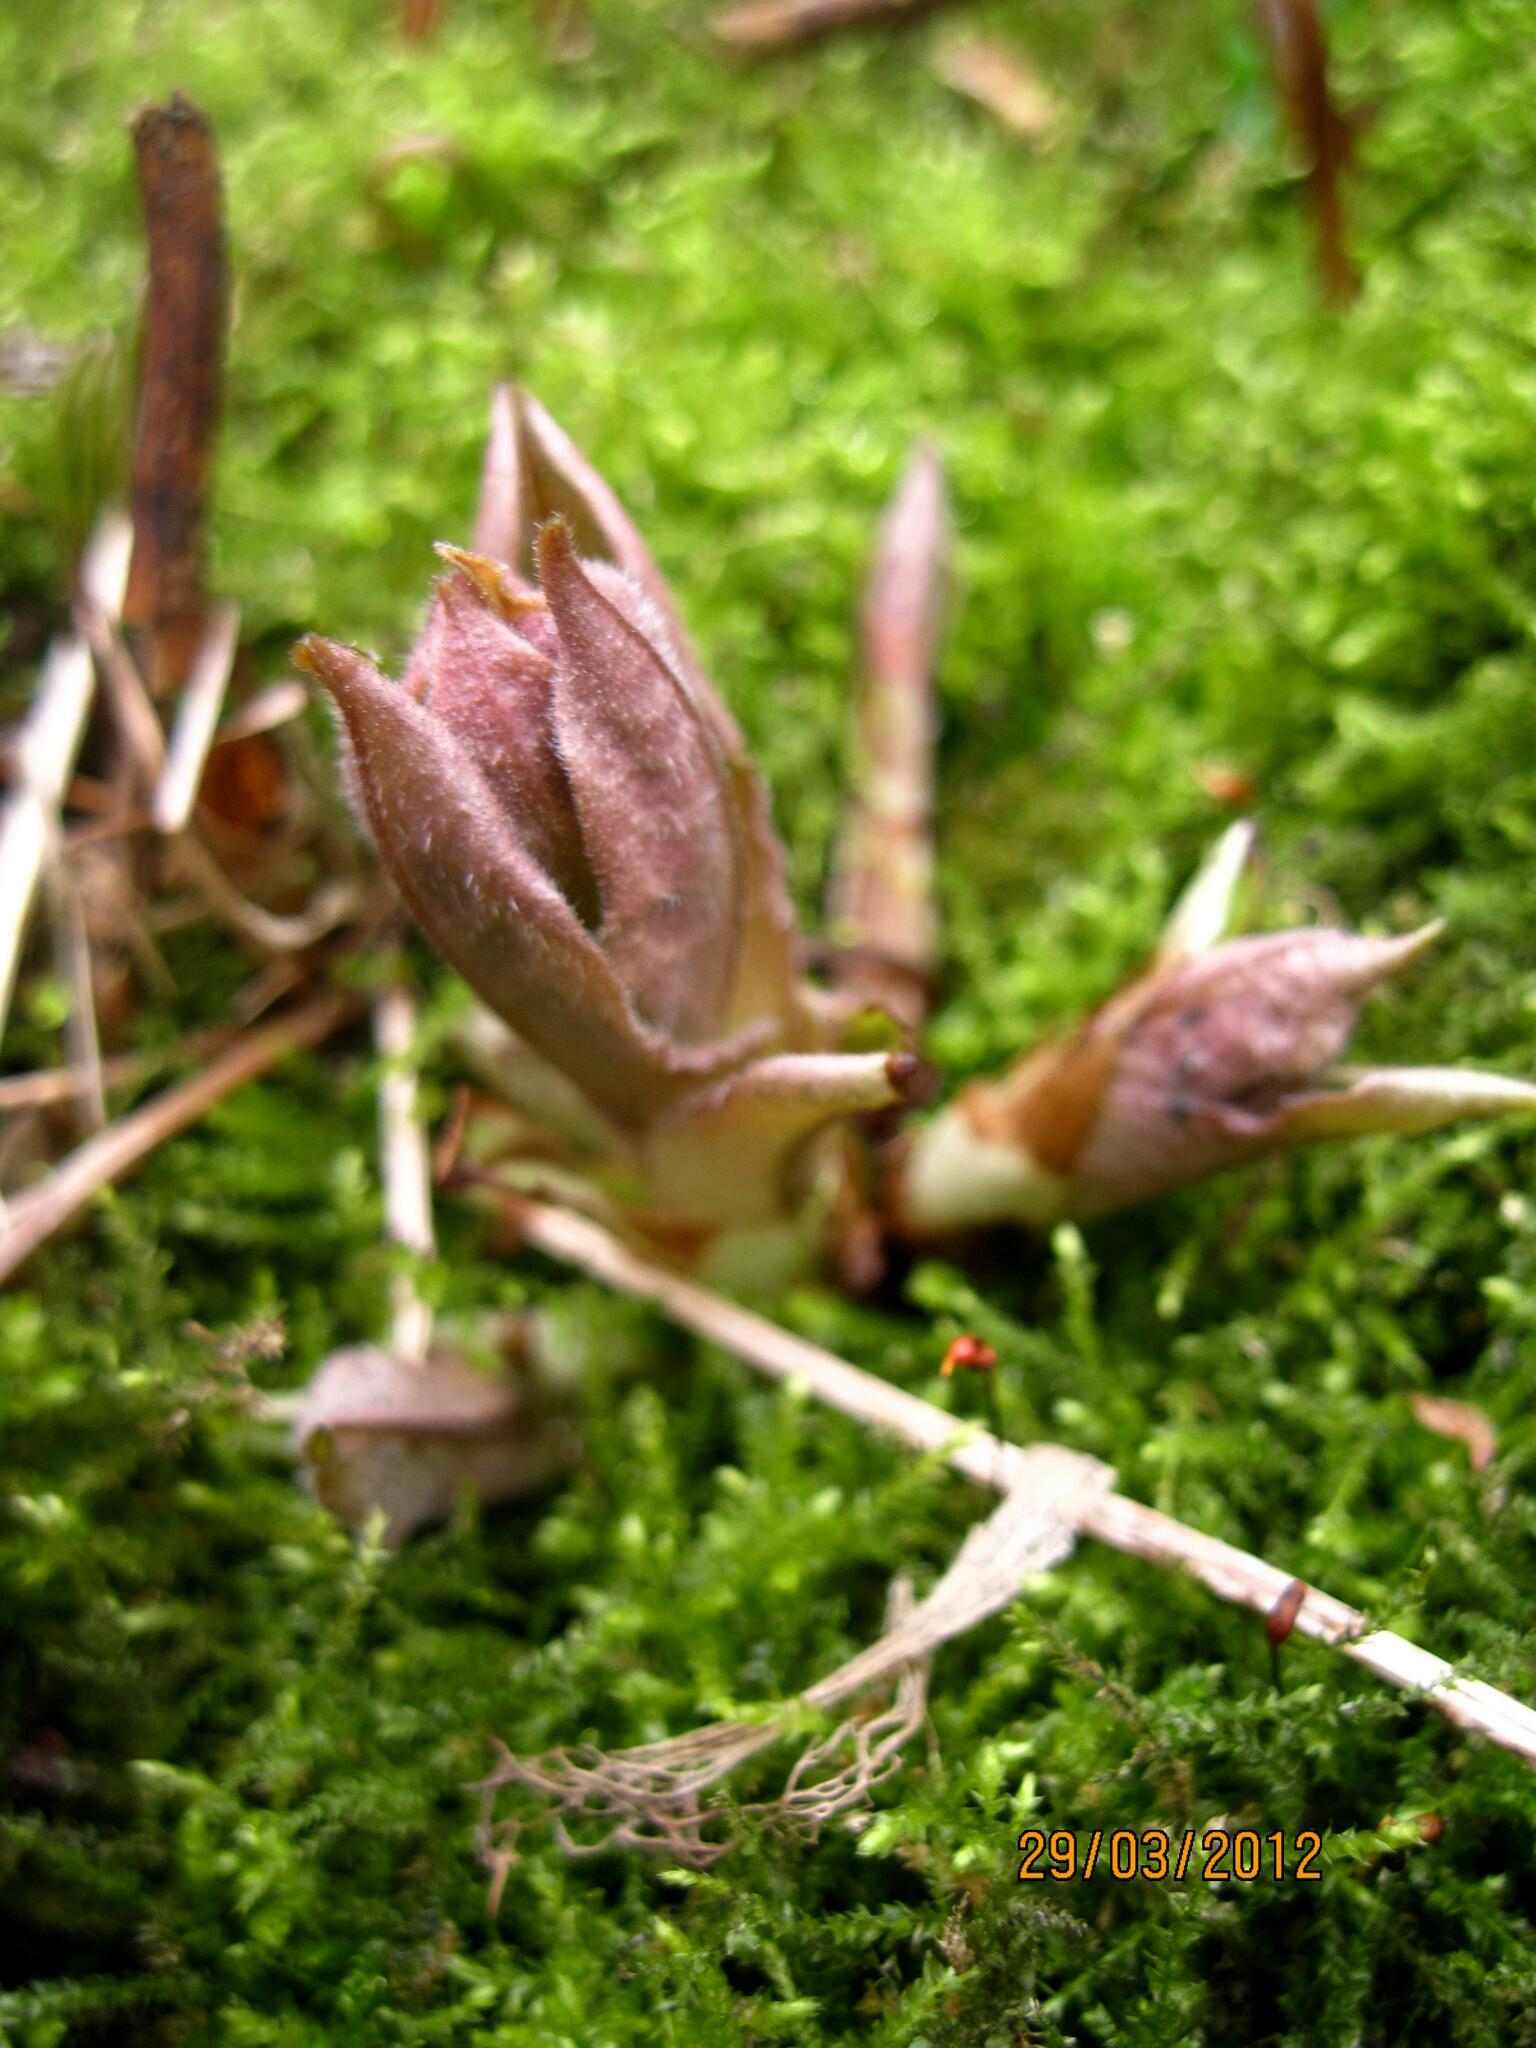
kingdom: Plantae
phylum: Tracheophyta
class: Magnoliopsida
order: Boraginales
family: Boraginaceae
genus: Pulmonaria
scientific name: Pulmonaria obscura
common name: Suffolk lungwort
